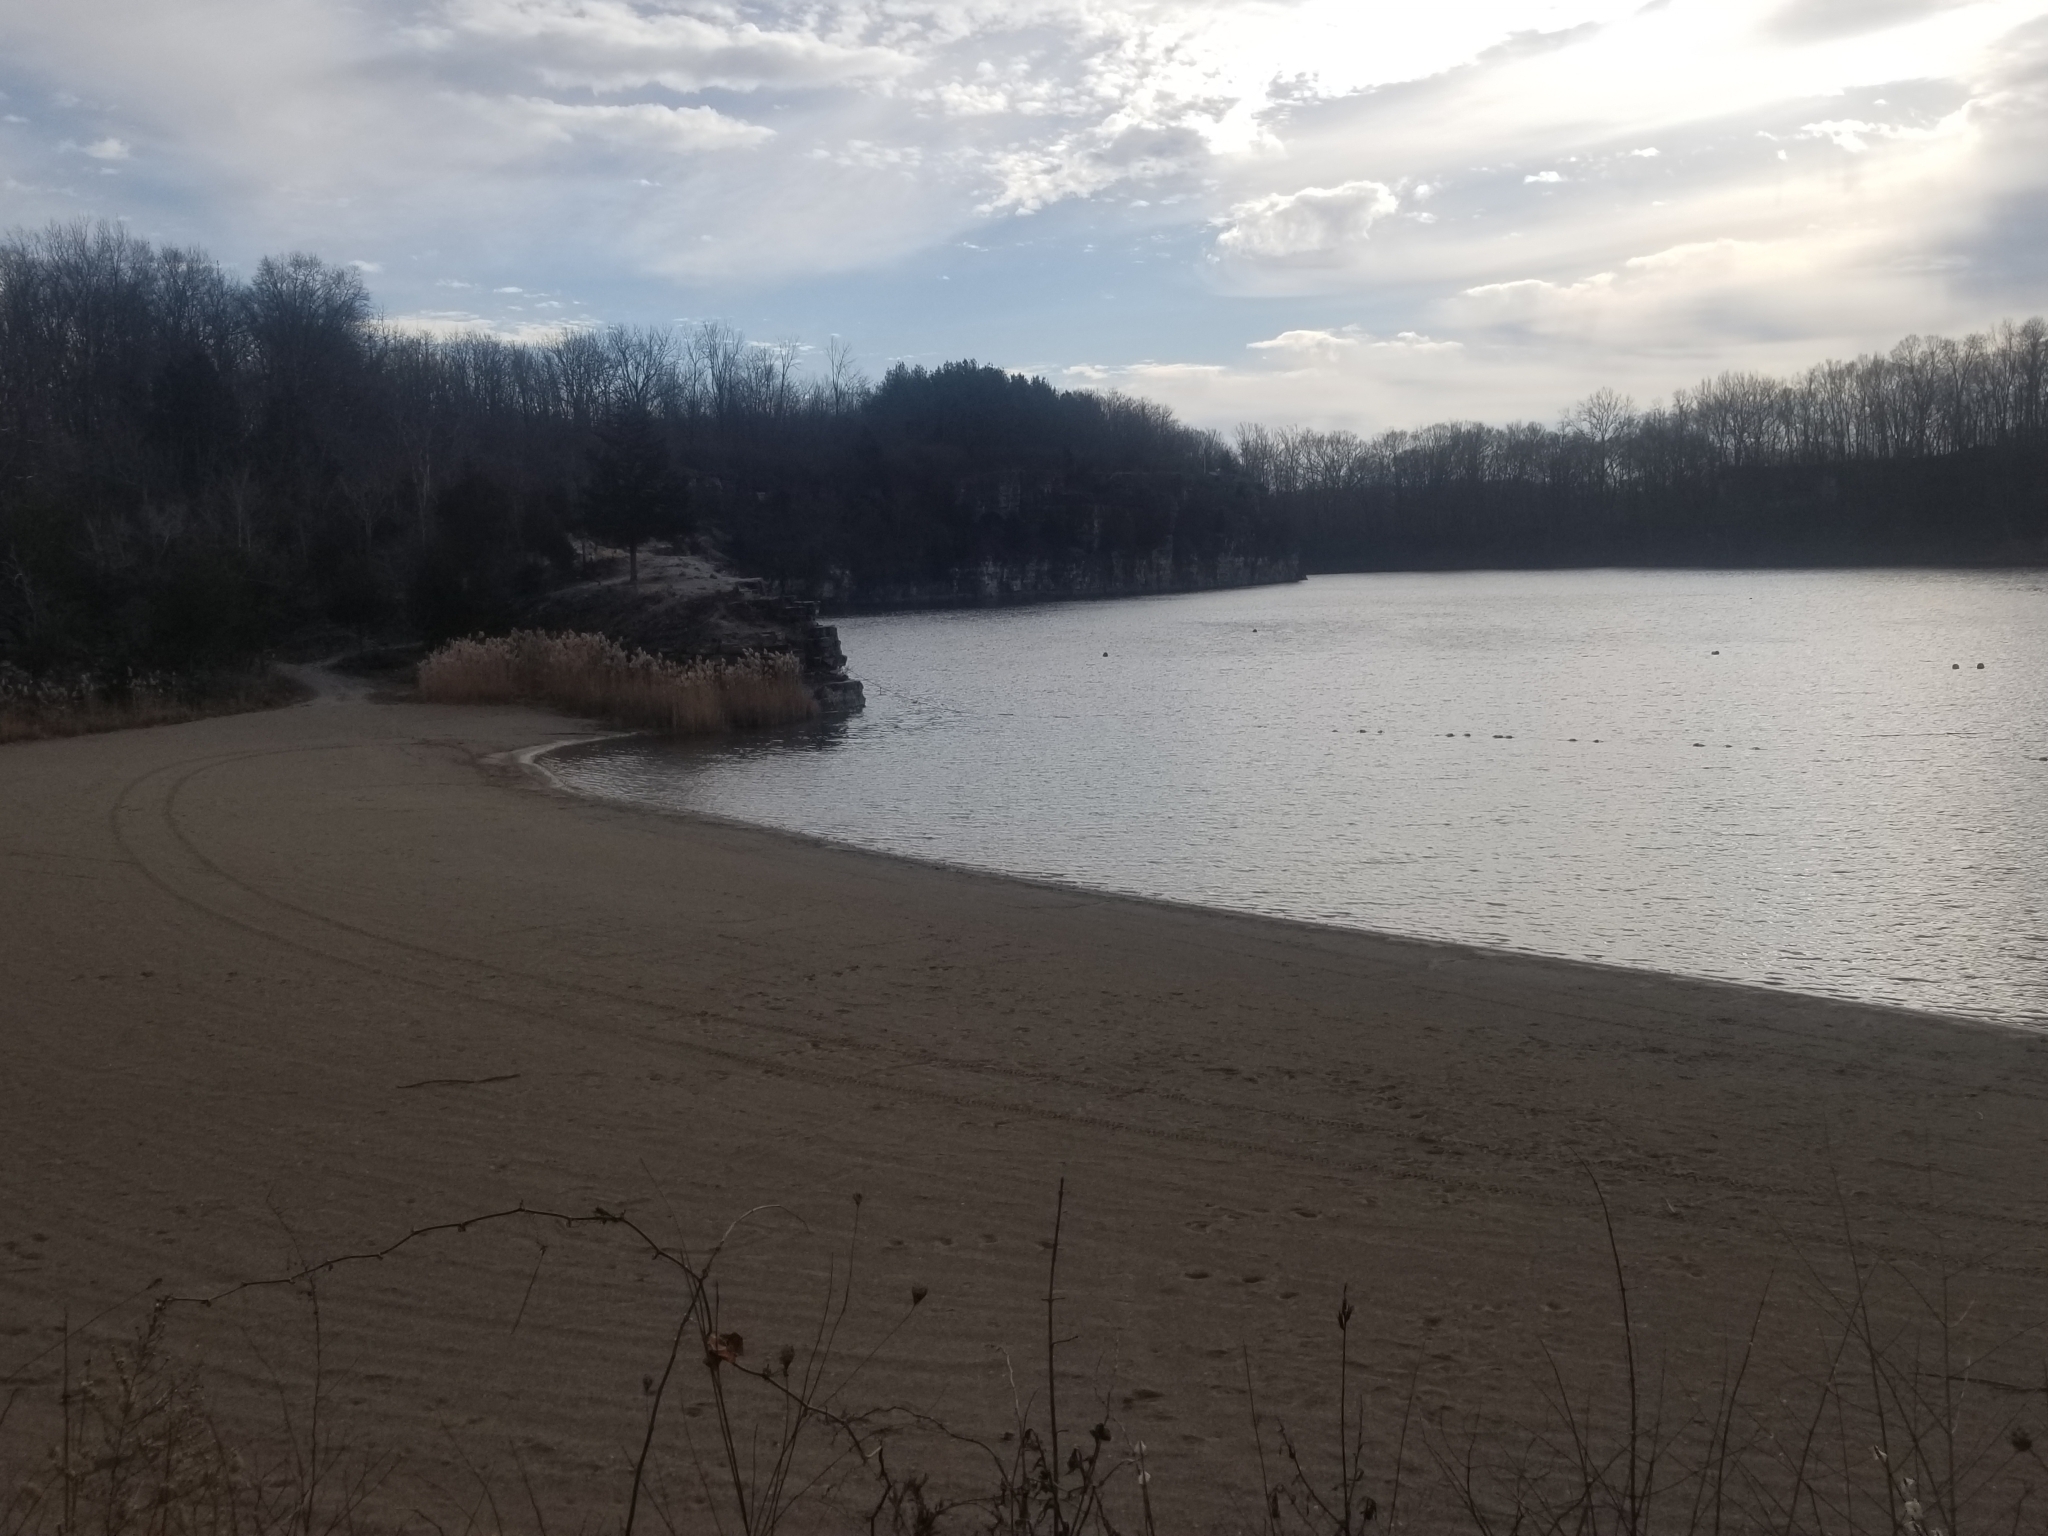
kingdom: Plantae
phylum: Tracheophyta
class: Liliopsida
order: Poales
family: Poaceae
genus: Phragmites
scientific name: Phragmites australis
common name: Common reed
